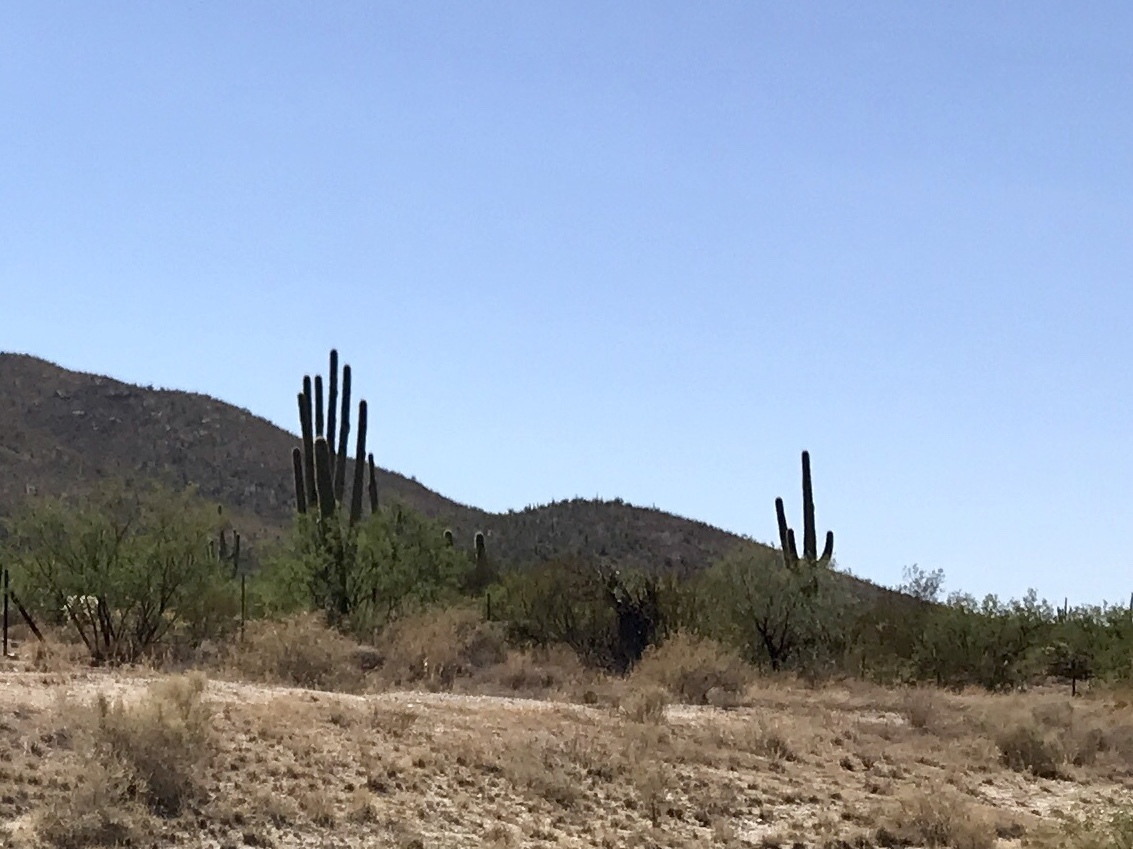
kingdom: Plantae
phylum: Tracheophyta
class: Magnoliopsida
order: Caryophyllales
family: Cactaceae
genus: Carnegiea
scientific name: Carnegiea gigantea
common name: Saguaro
